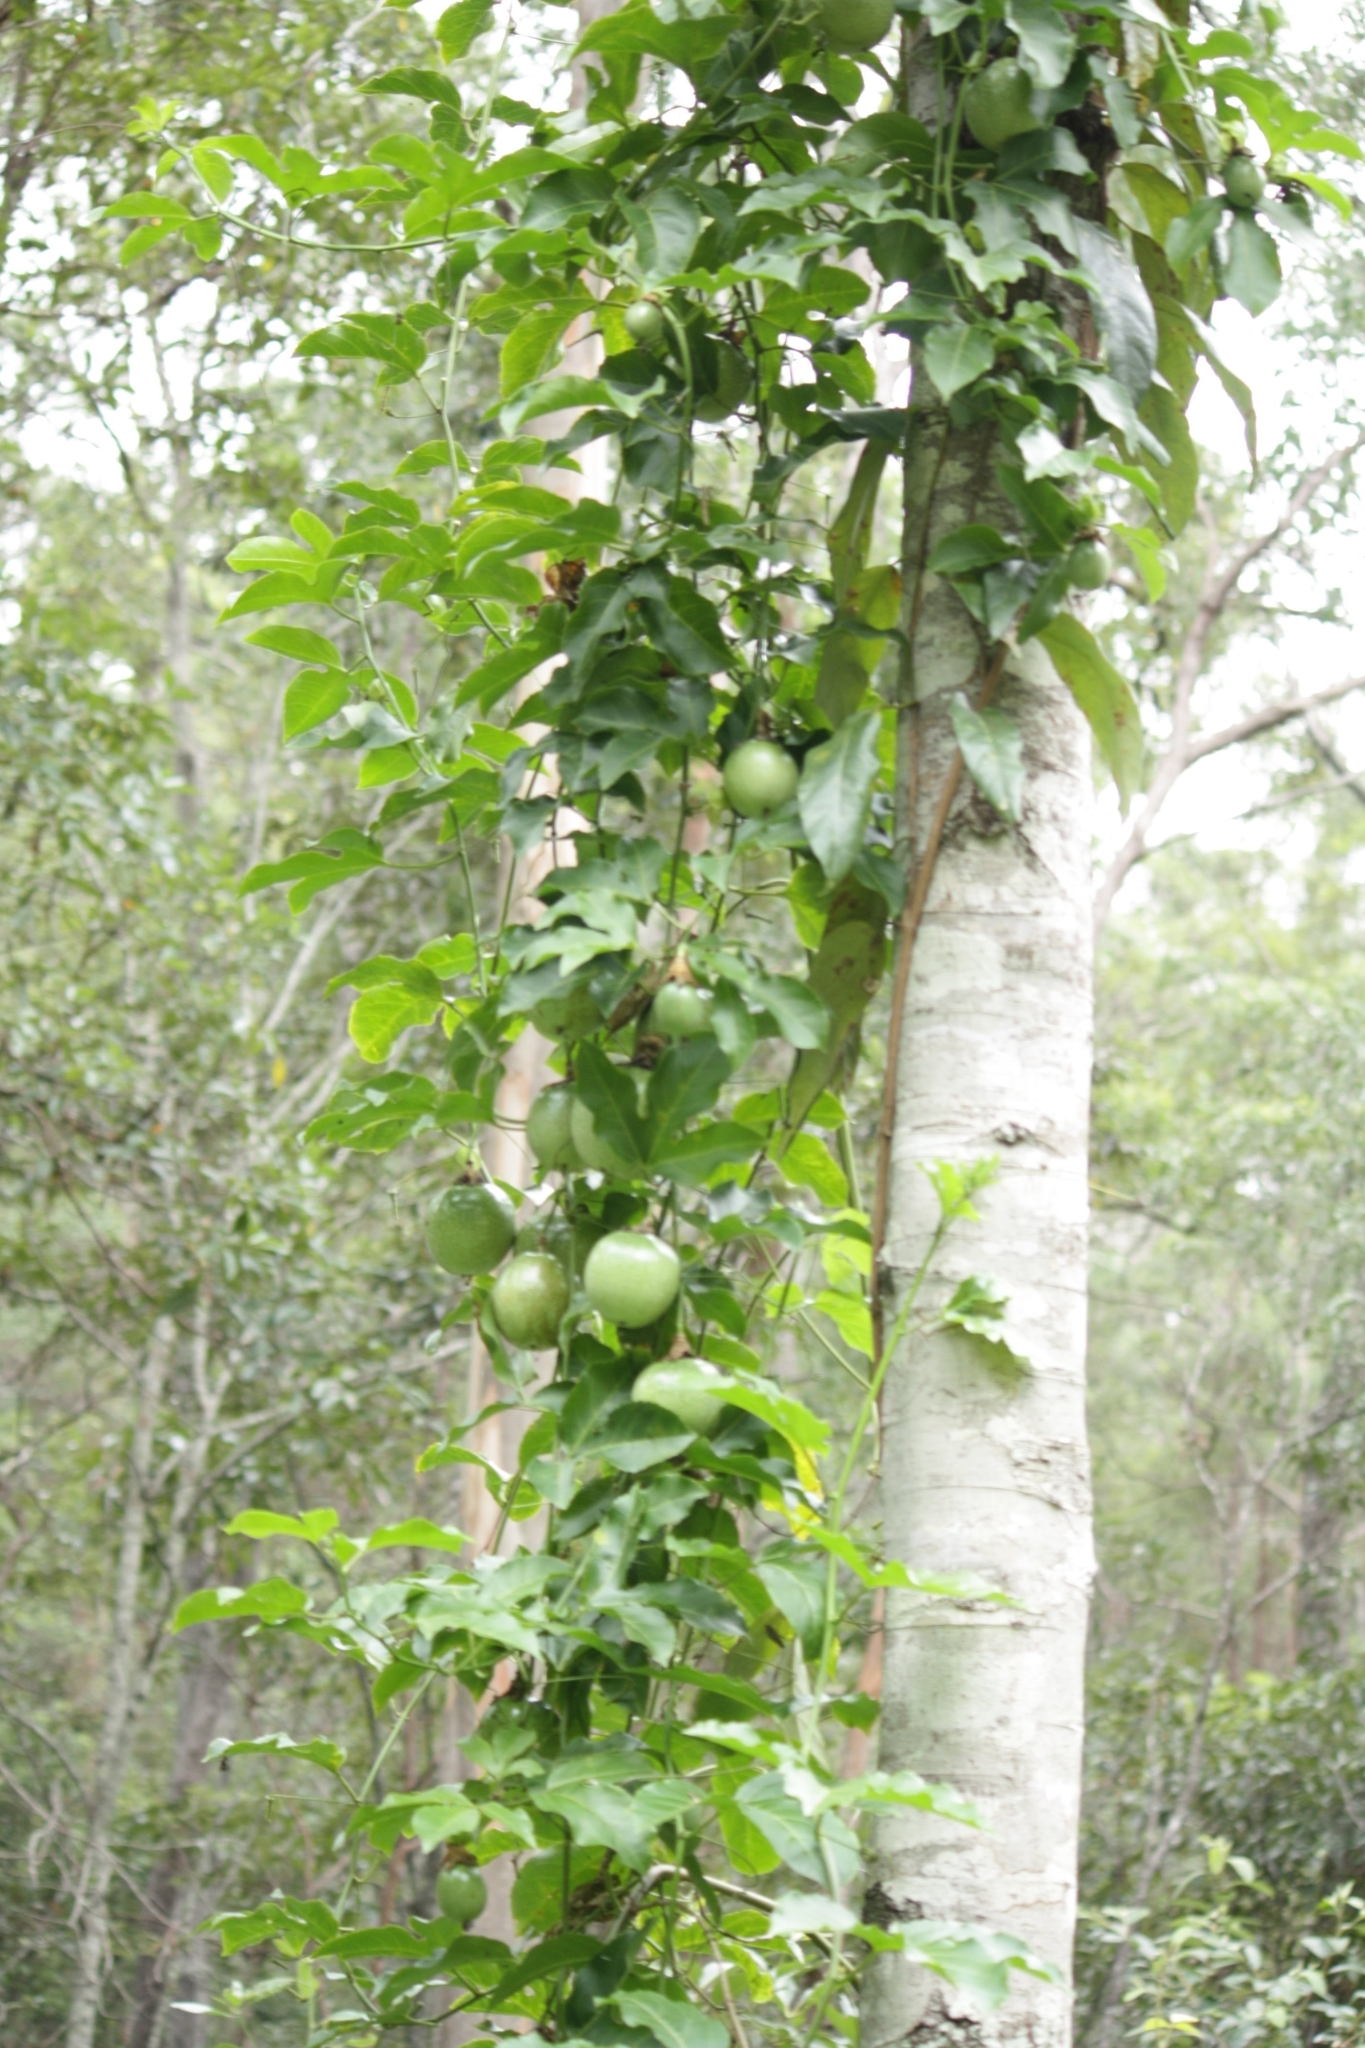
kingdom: Plantae
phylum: Tracheophyta
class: Magnoliopsida
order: Malpighiales
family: Passifloraceae
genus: Passiflora
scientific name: Passiflora edulis
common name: Purple granadilla
